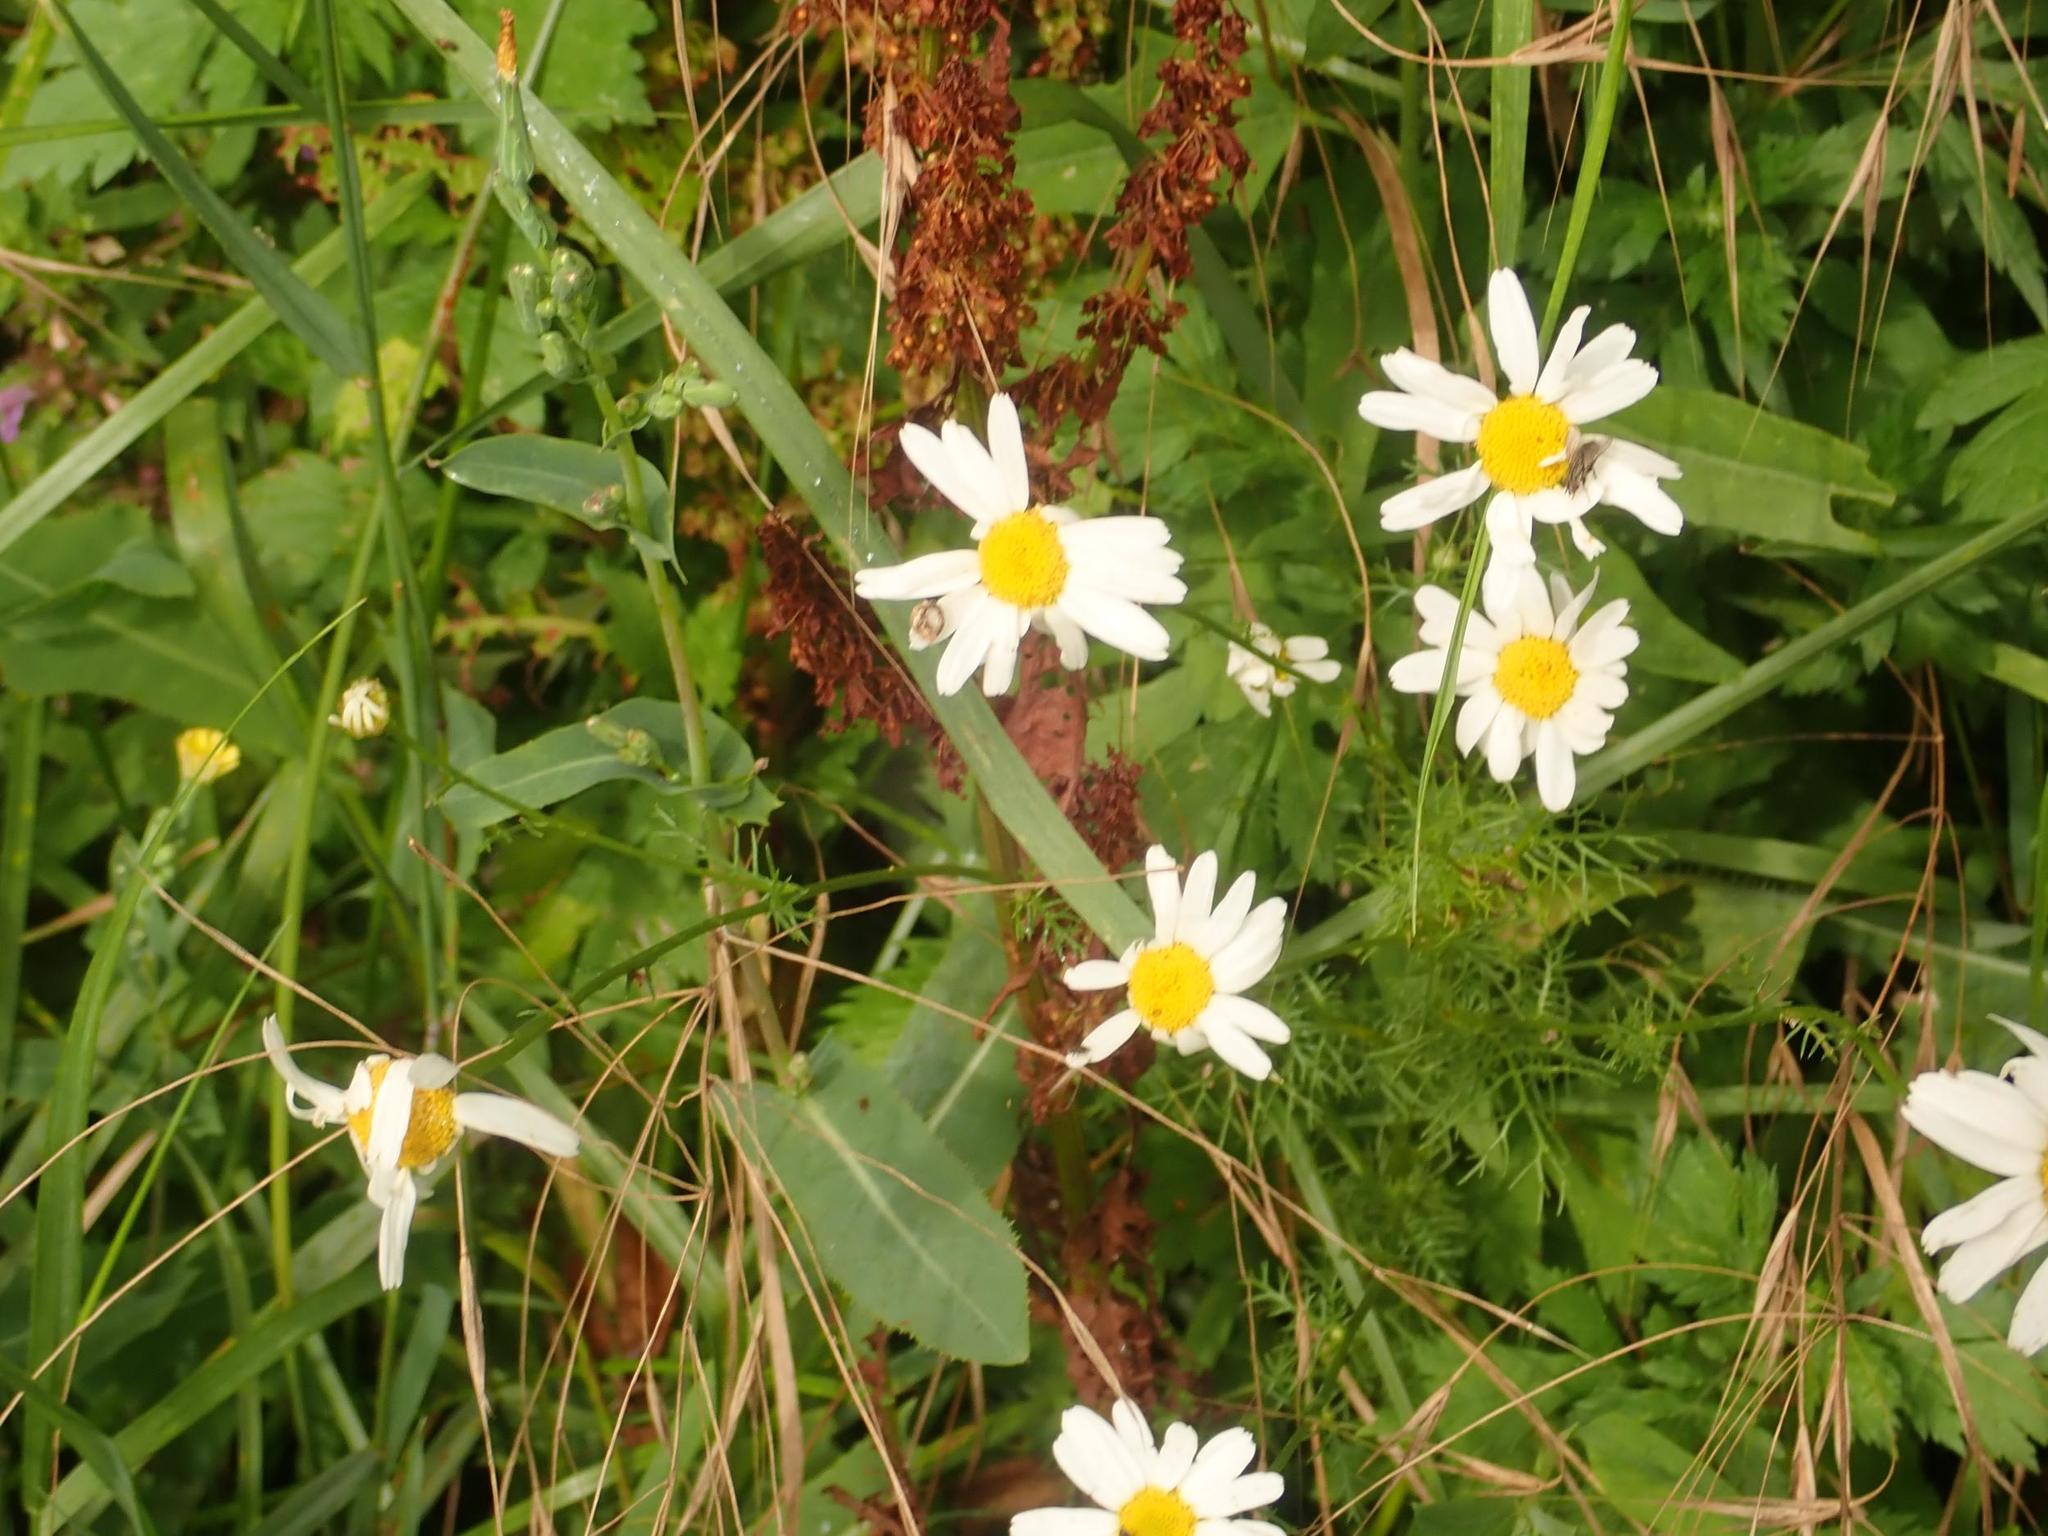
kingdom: Plantae
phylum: Tracheophyta
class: Magnoliopsida
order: Asterales
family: Asteraceae
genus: Tripleurospermum
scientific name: Tripleurospermum inodorum
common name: Scentless mayweed
